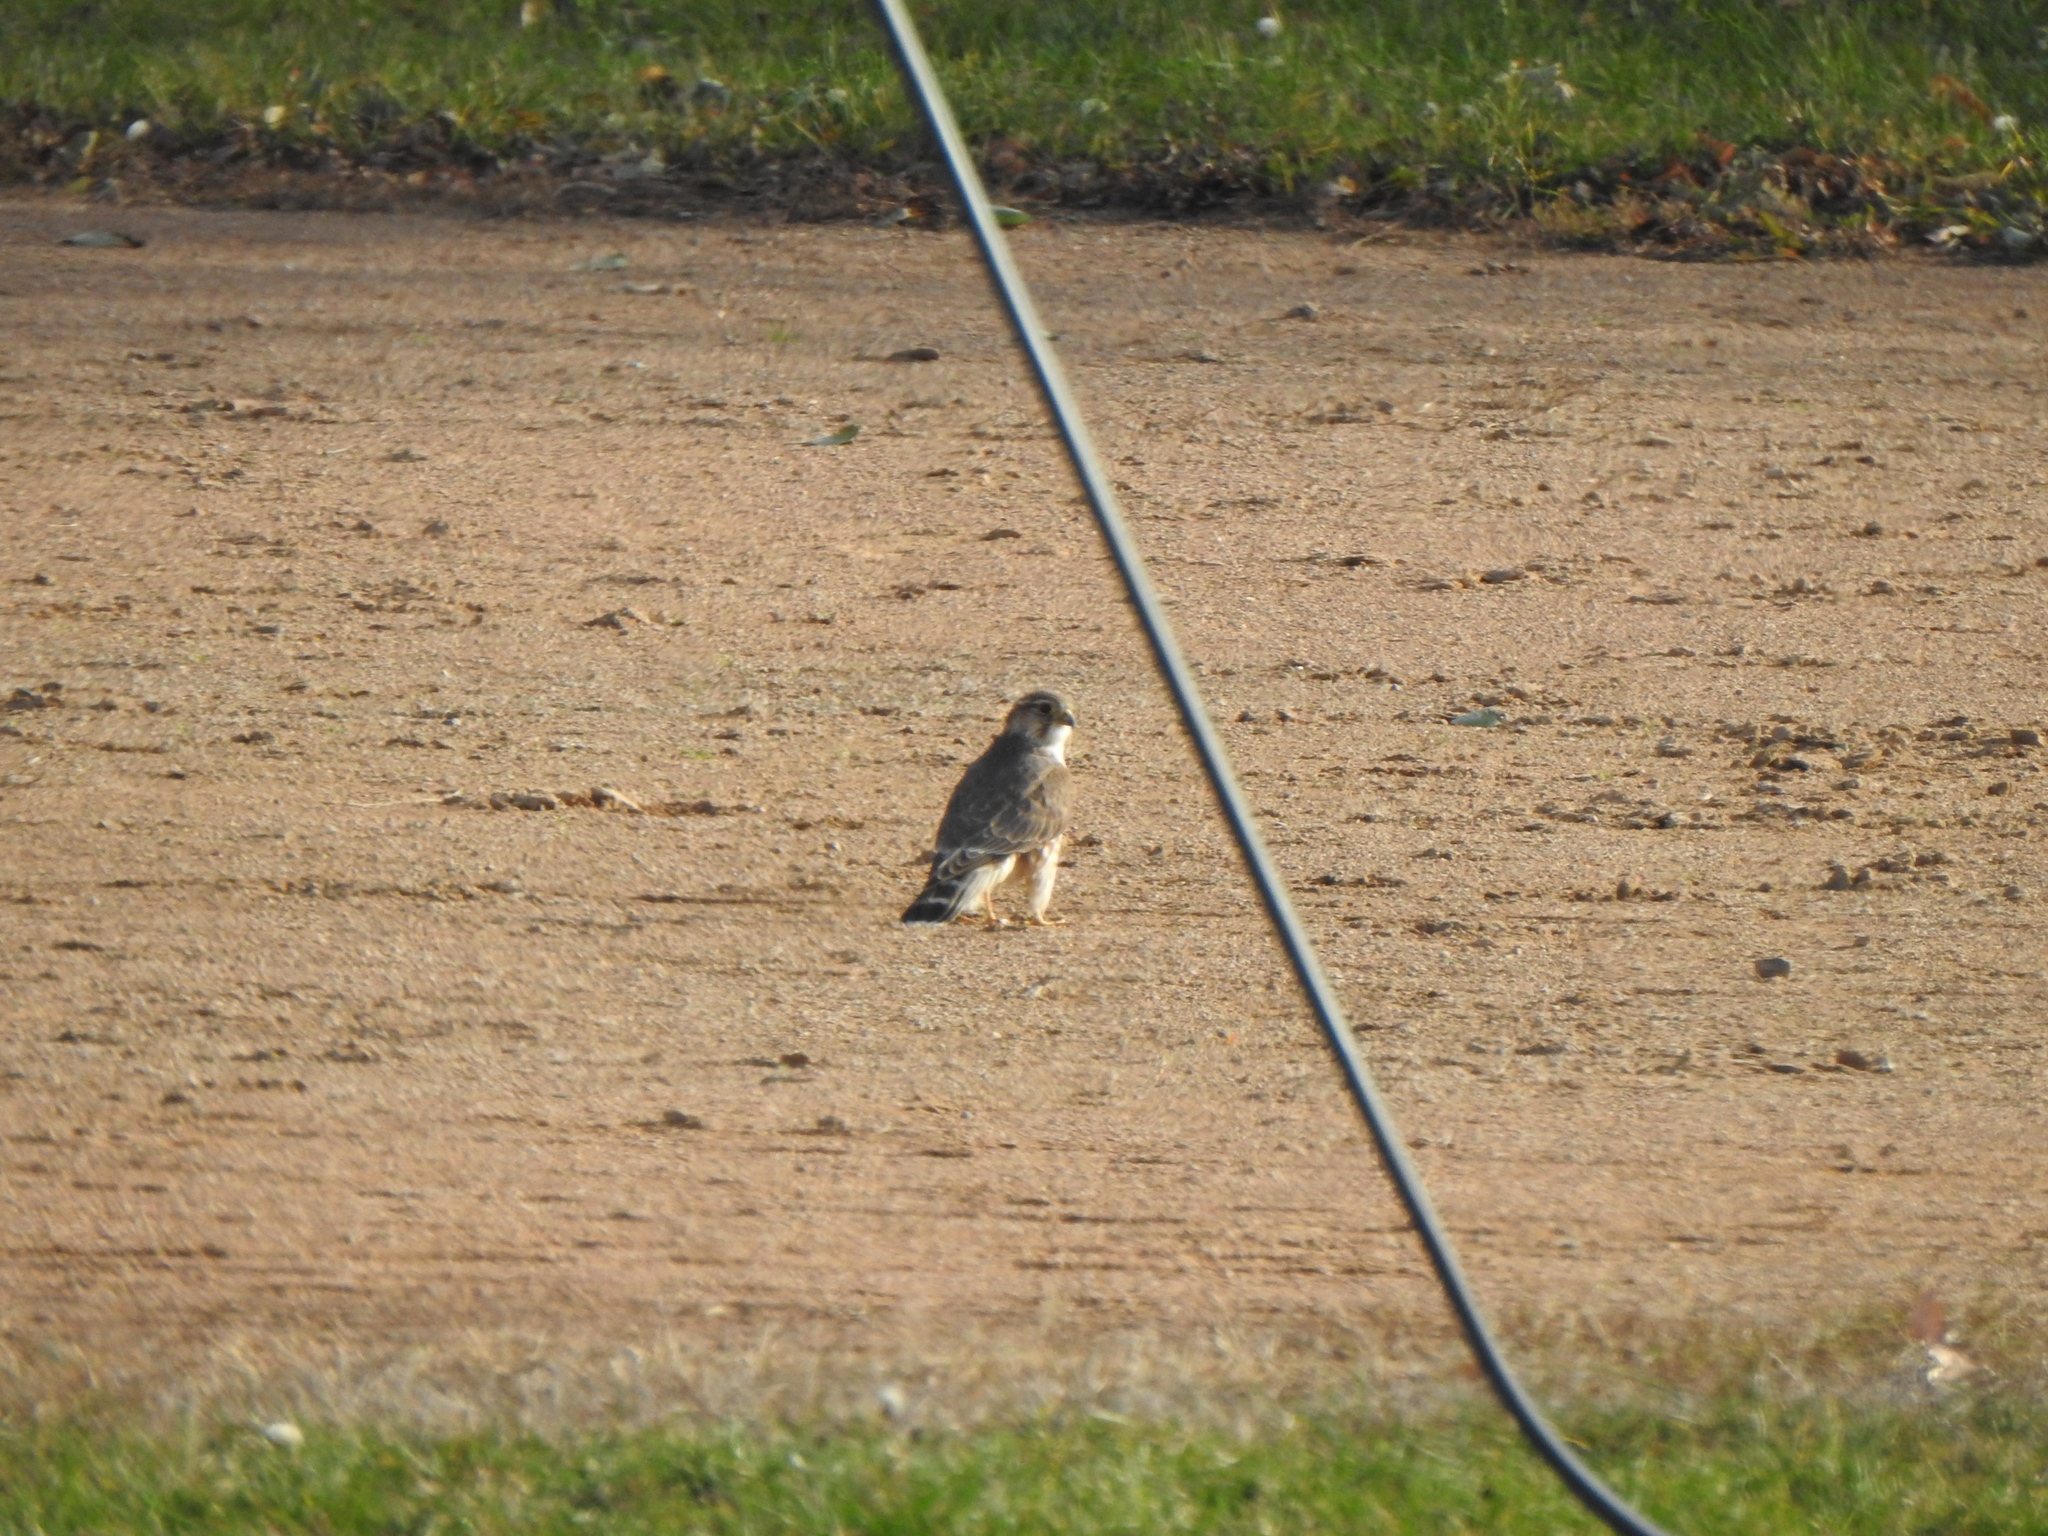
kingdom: Animalia
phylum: Chordata
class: Aves
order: Falconiformes
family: Falconidae
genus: Falco
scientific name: Falco columbarius
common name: Merlin
